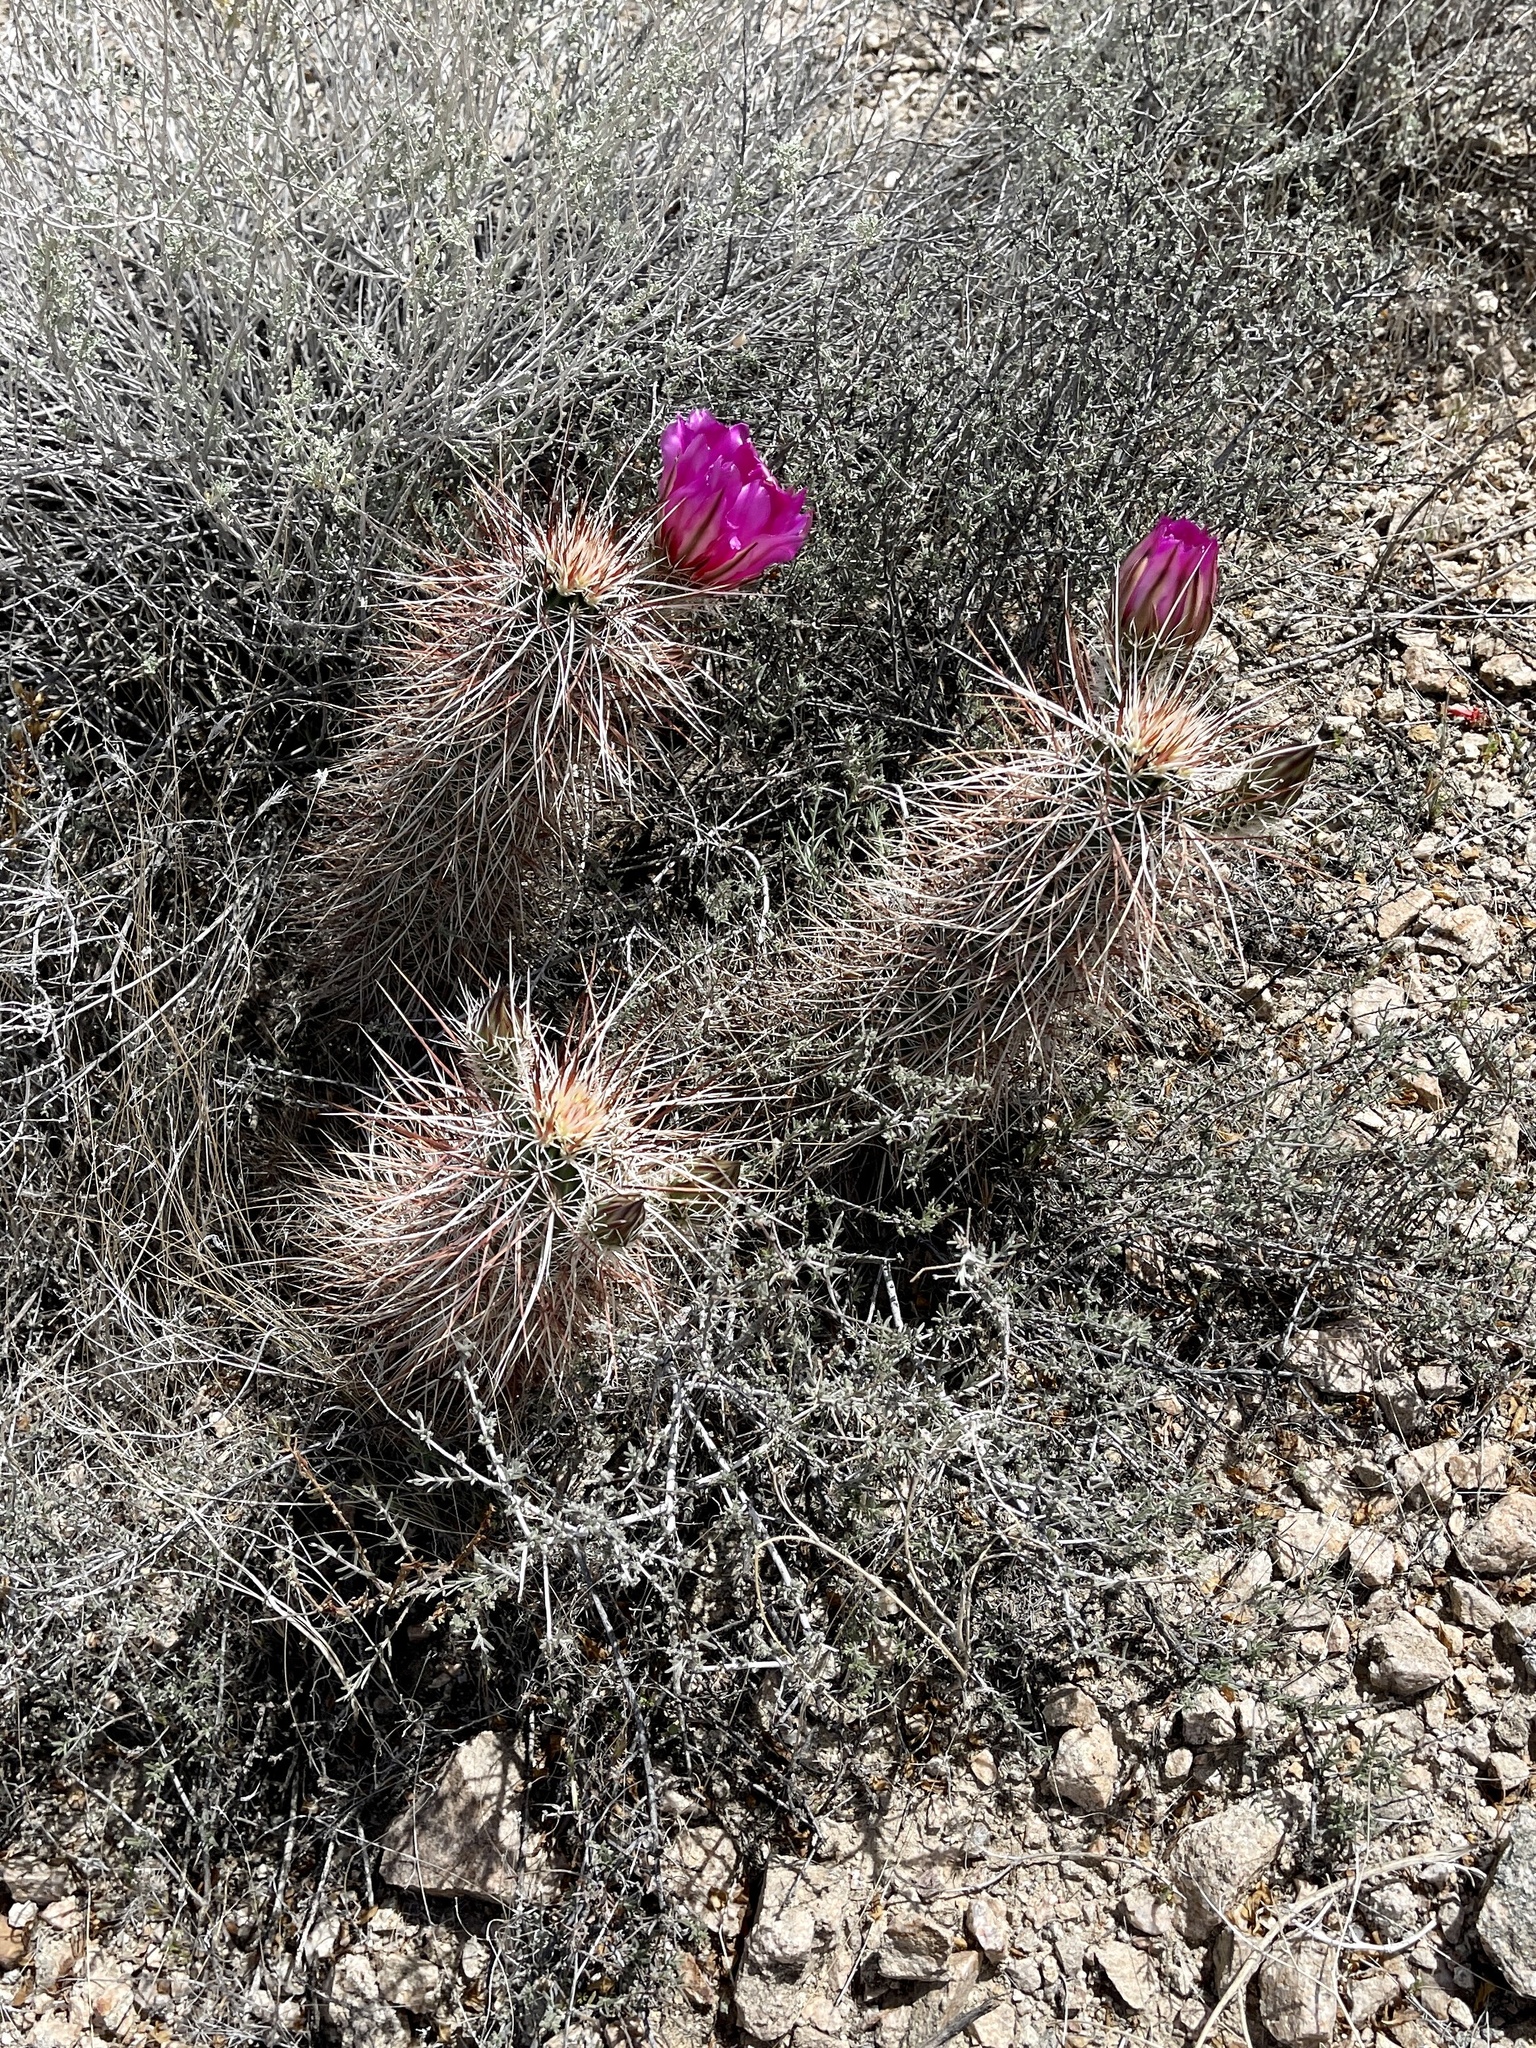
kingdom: Plantae
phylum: Tracheophyta
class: Magnoliopsida
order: Caryophyllales
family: Cactaceae
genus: Echinocereus
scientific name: Echinocereus engelmannii
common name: Engelmann's hedgehog cactus
